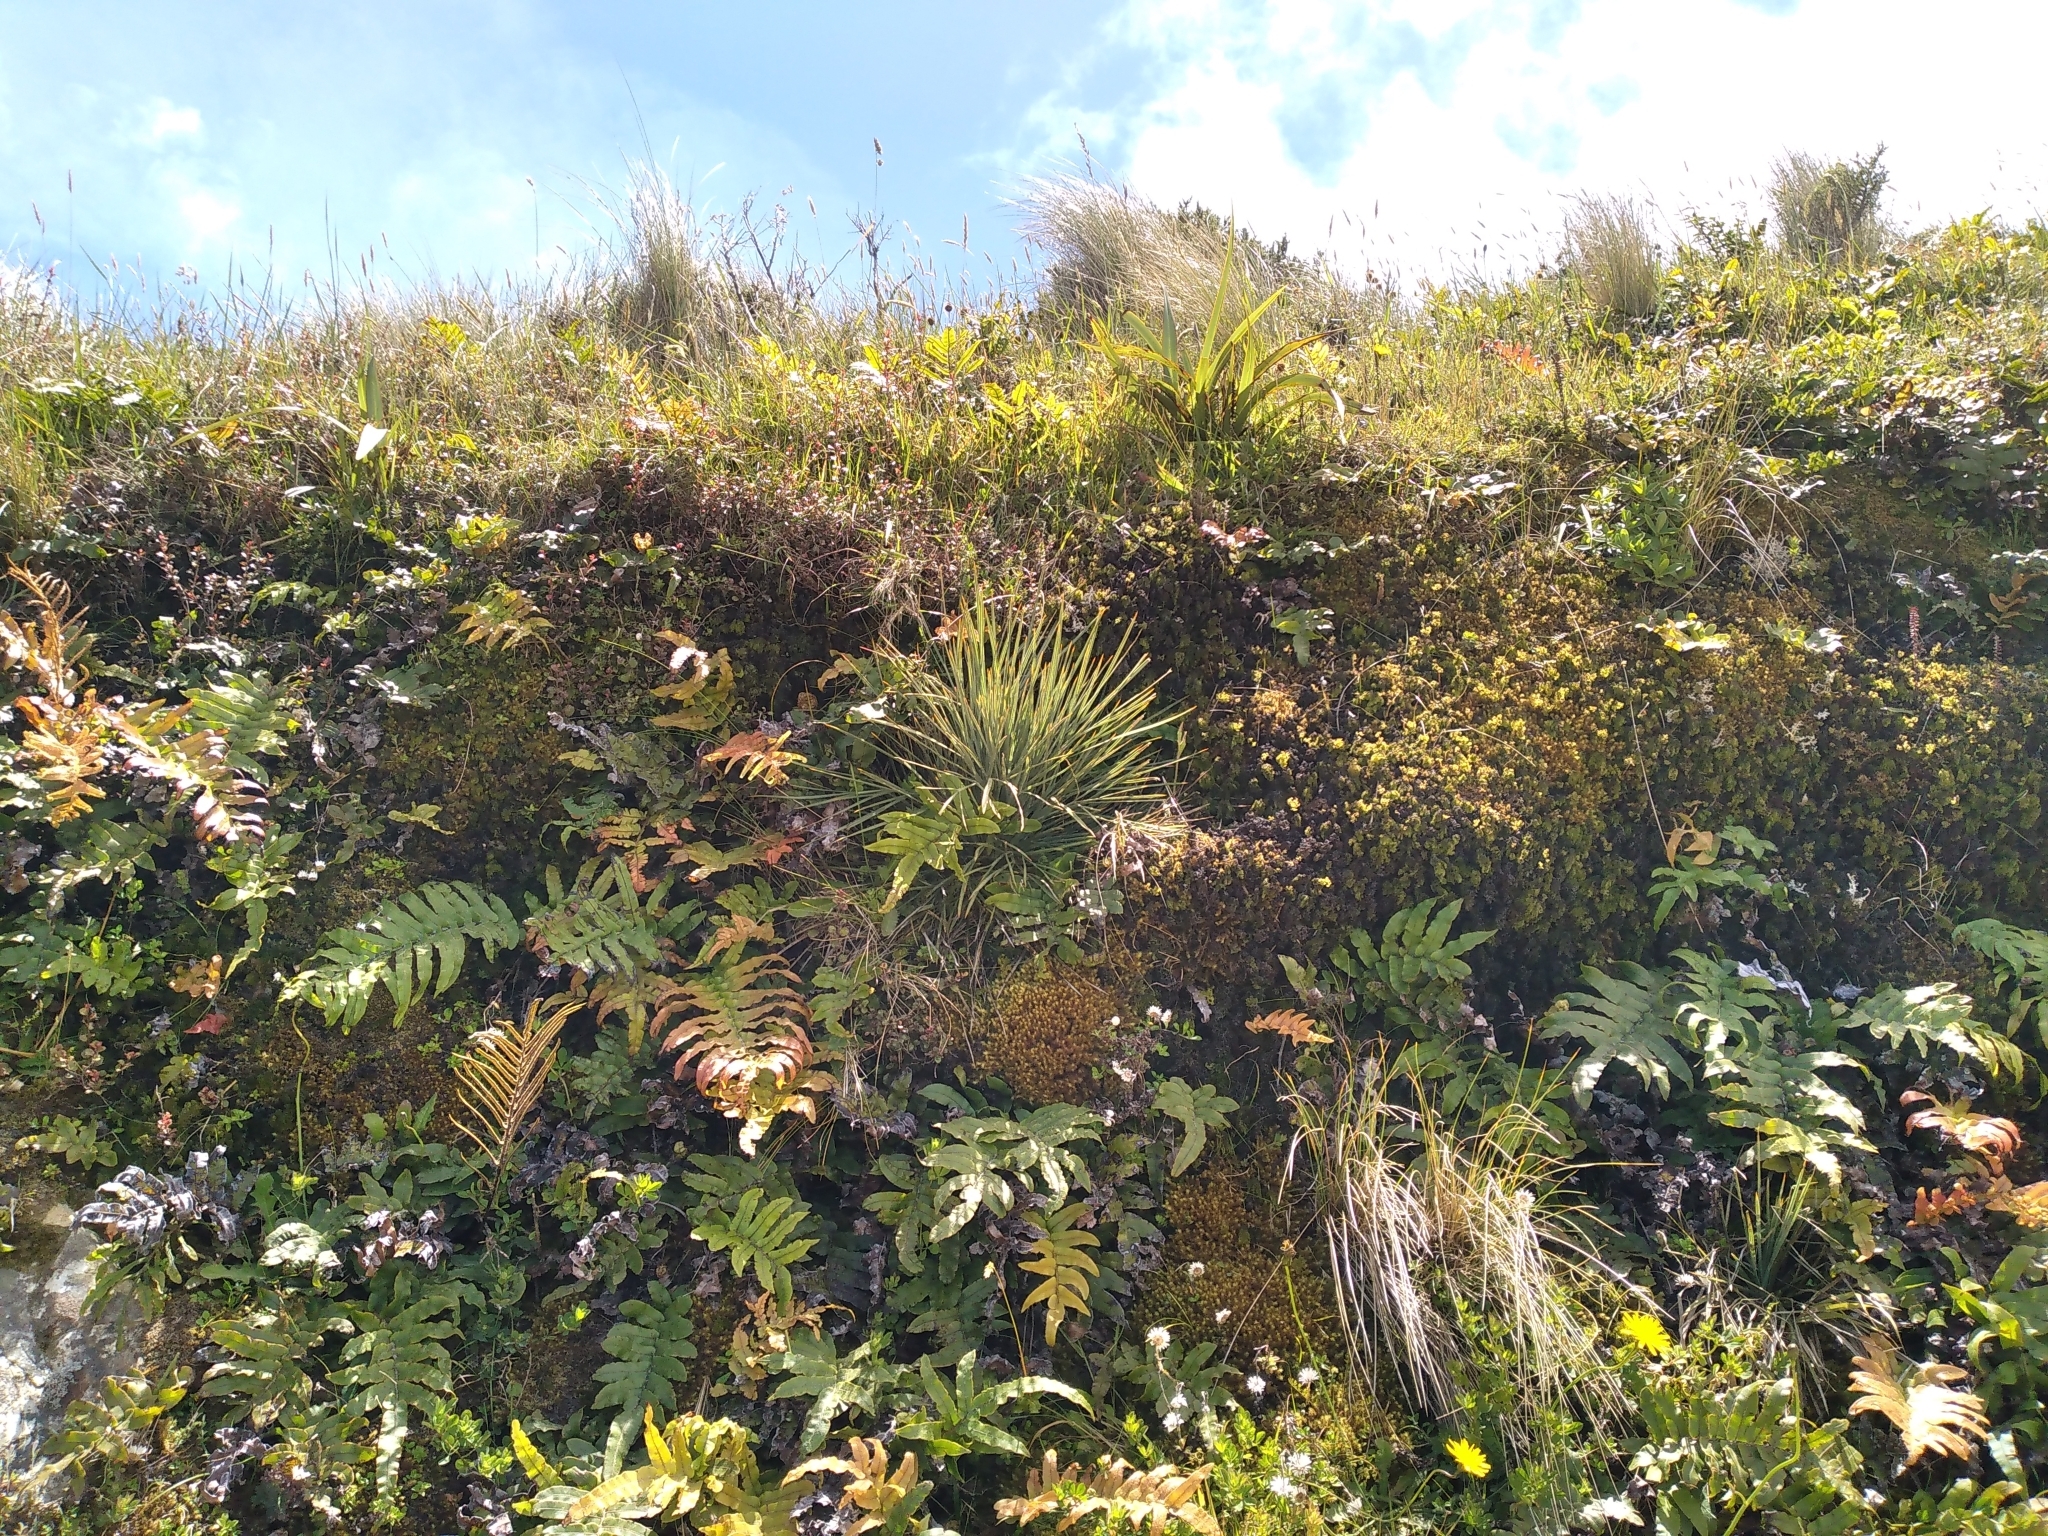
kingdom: Plantae
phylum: Tracheophyta
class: Magnoliopsida
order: Apiales
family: Apiaceae
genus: Aciphylla
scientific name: Aciphylla squarrosa
